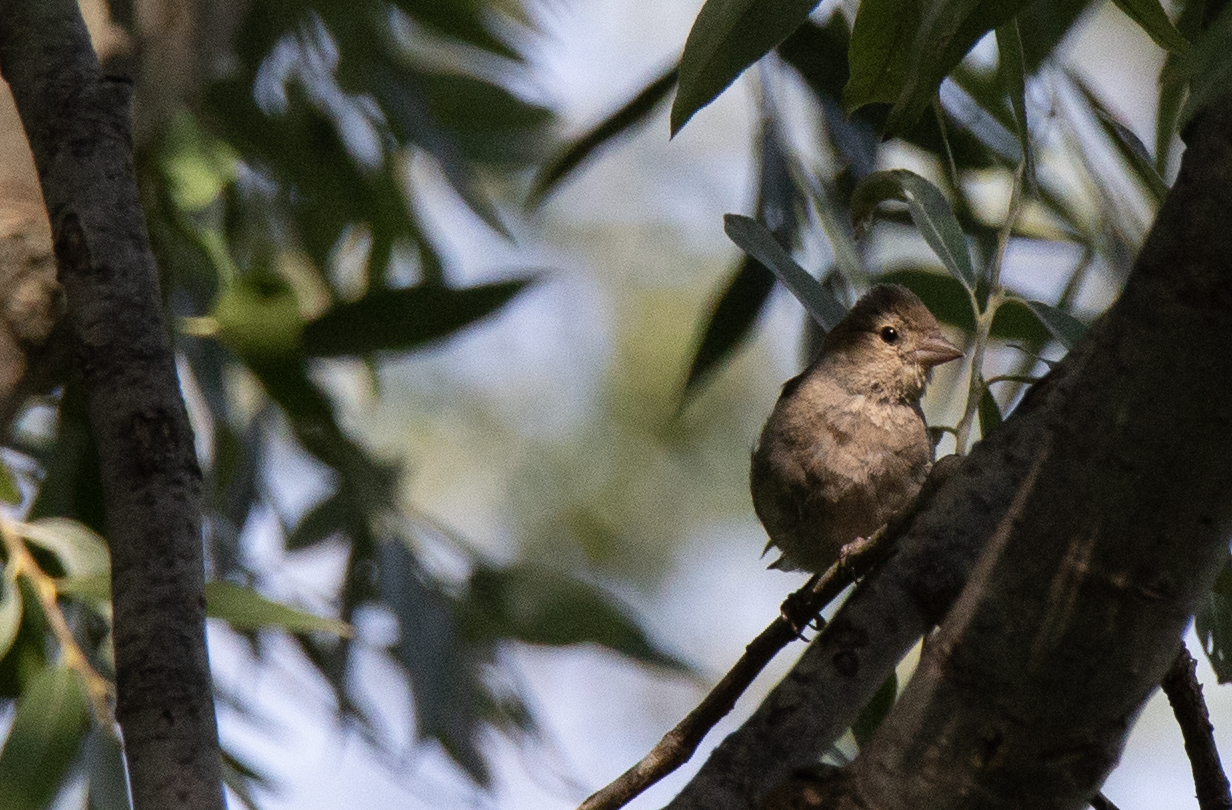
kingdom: Animalia
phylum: Chordata
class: Aves
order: Passeriformes
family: Fringillidae
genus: Fringilla
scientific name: Fringilla coelebs
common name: Common chaffinch
